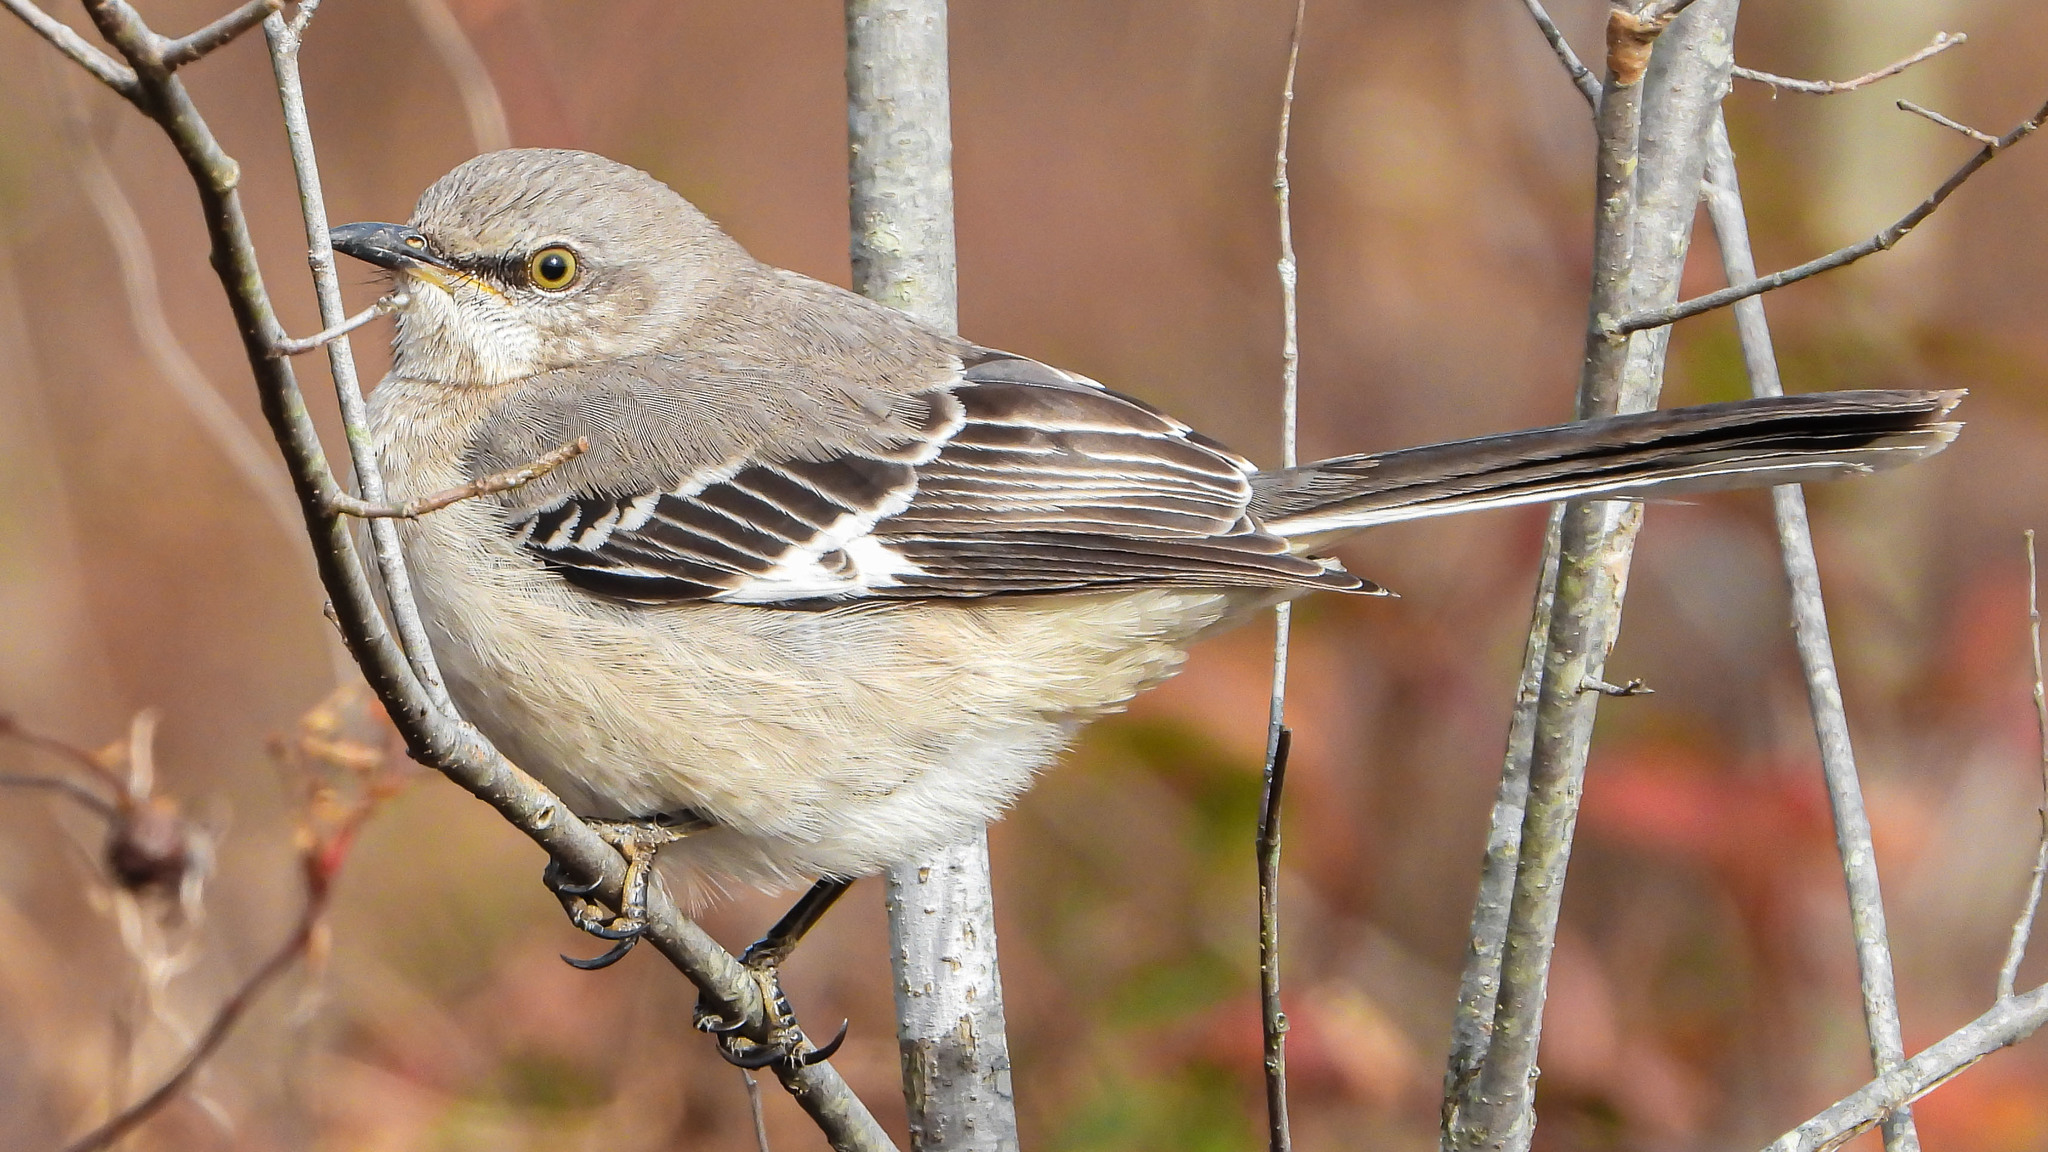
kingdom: Animalia
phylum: Chordata
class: Aves
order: Passeriformes
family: Mimidae
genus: Mimus
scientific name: Mimus polyglottos
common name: Northern mockingbird
